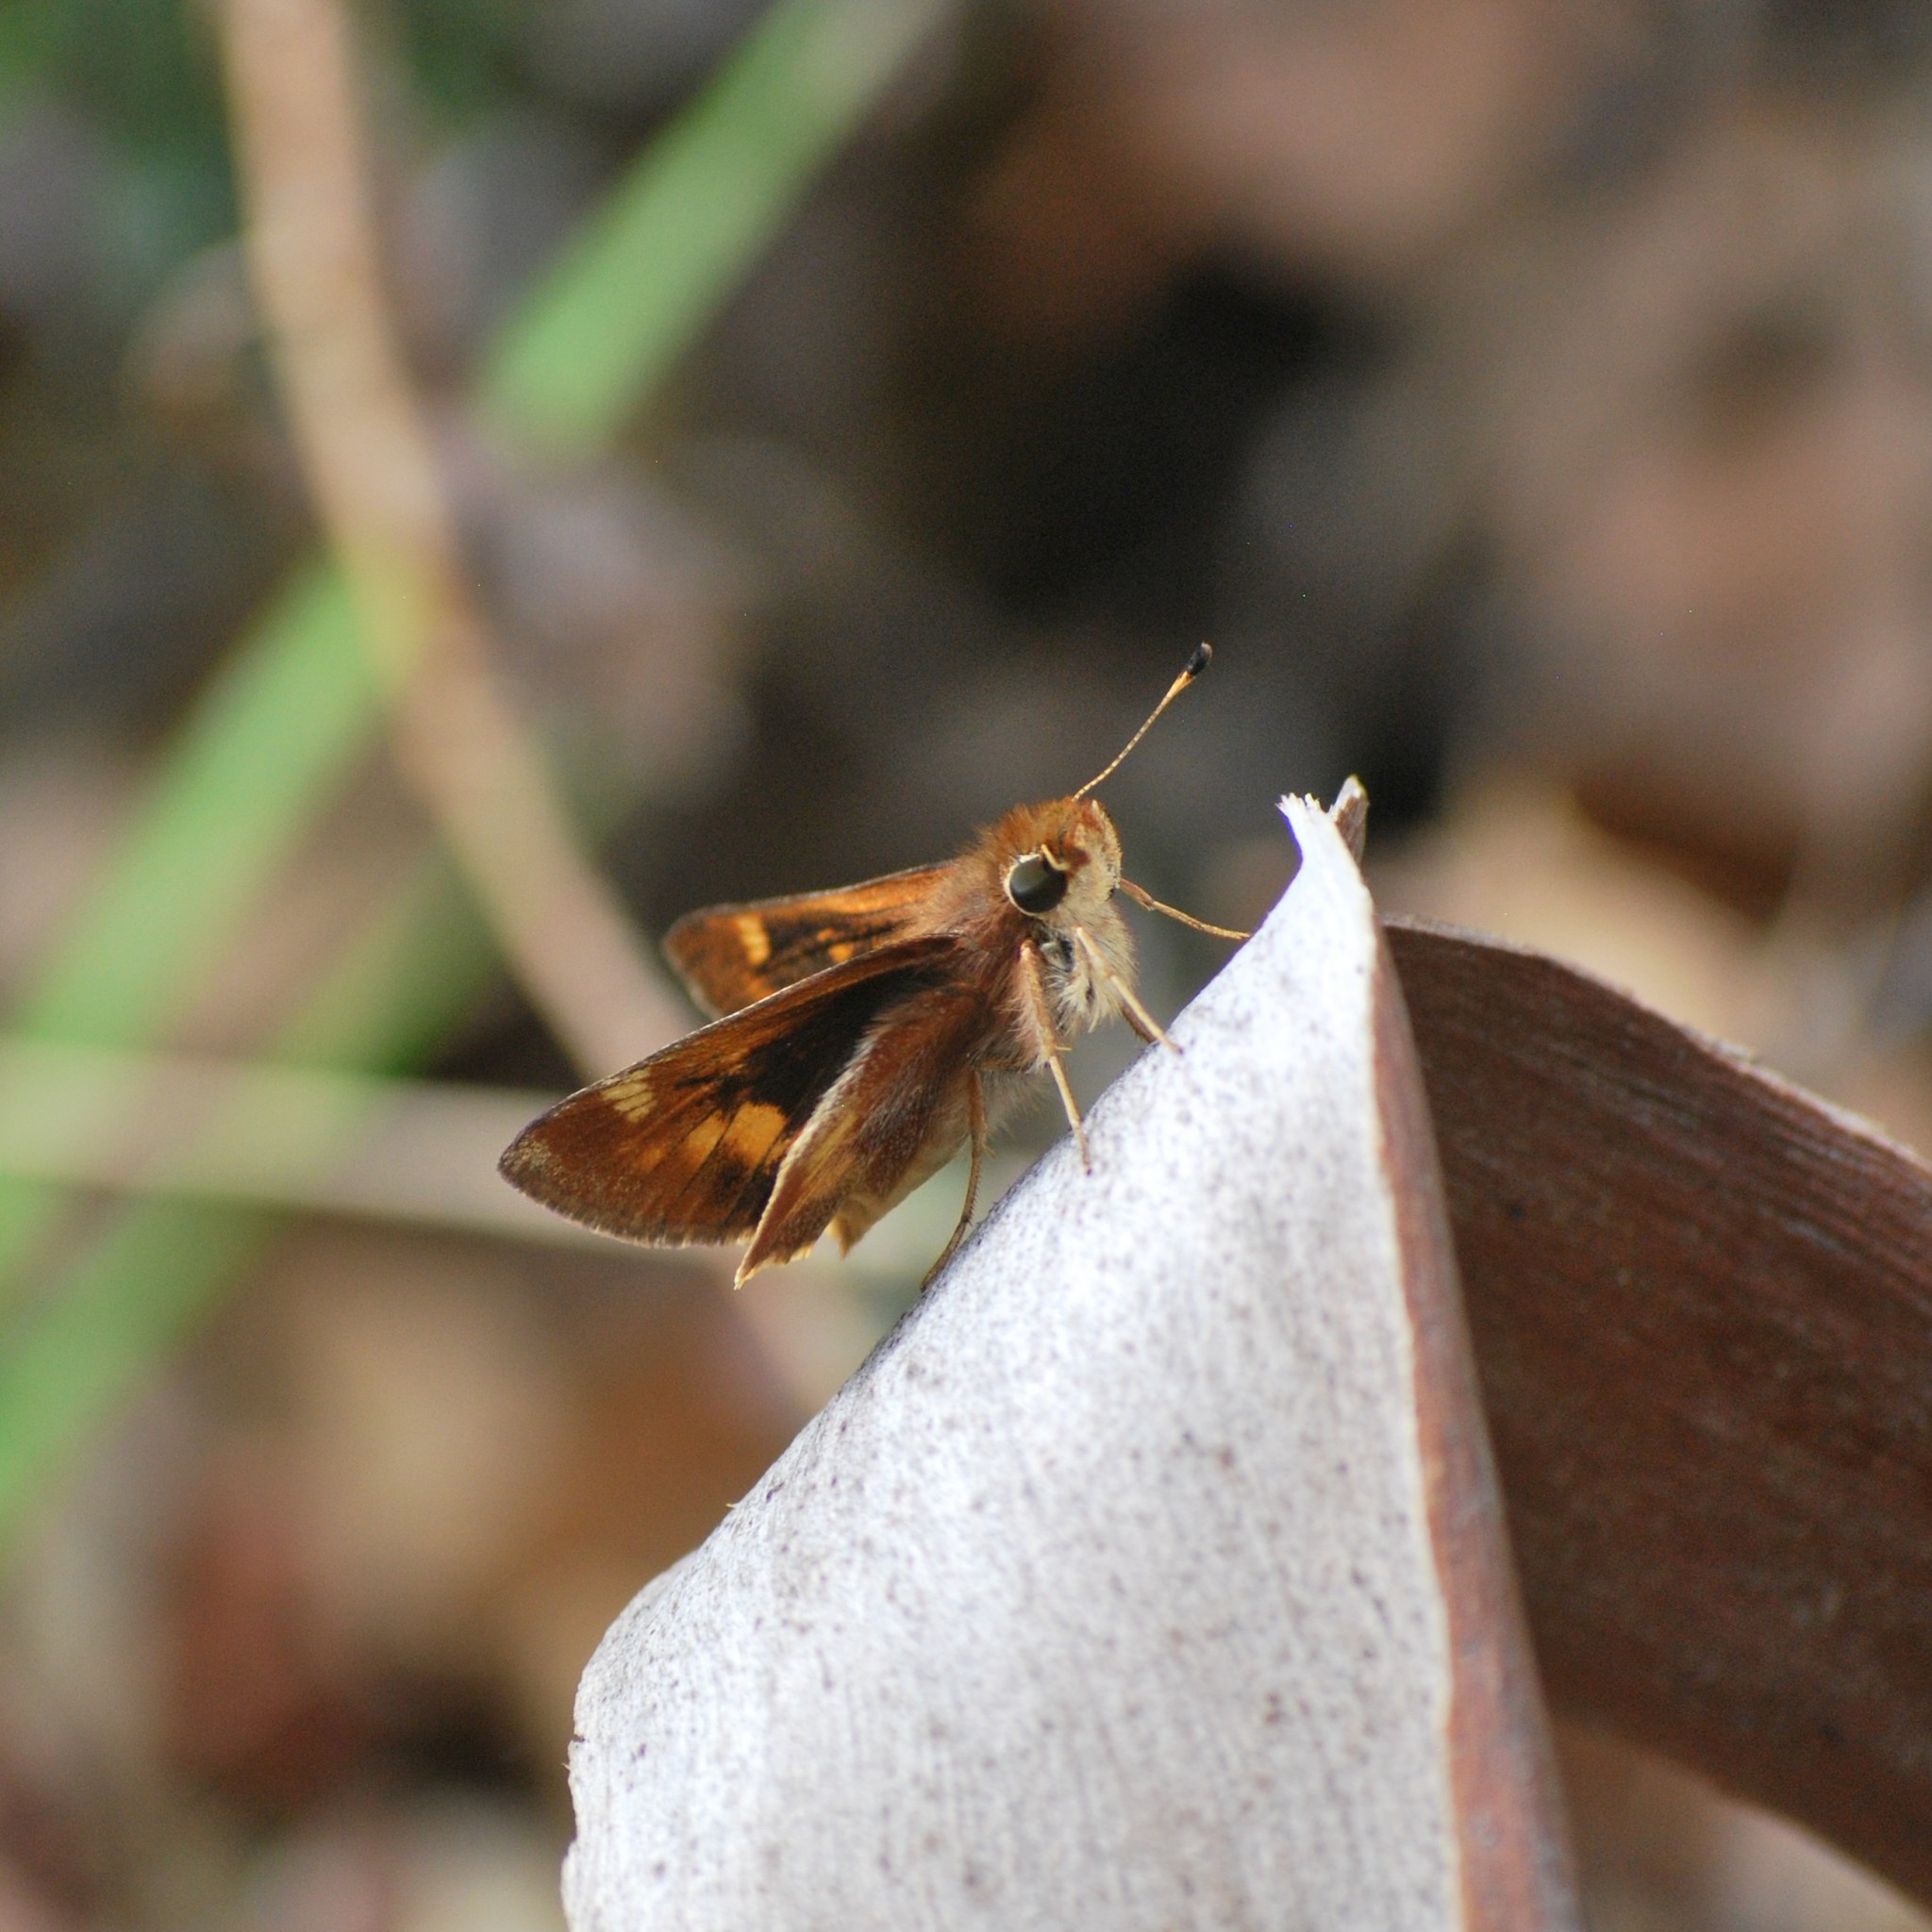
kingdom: Animalia
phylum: Arthropoda
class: Insecta
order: Lepidoptera
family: Hesperiidae
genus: Lon
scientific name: Lon melane
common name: Umber skipper
